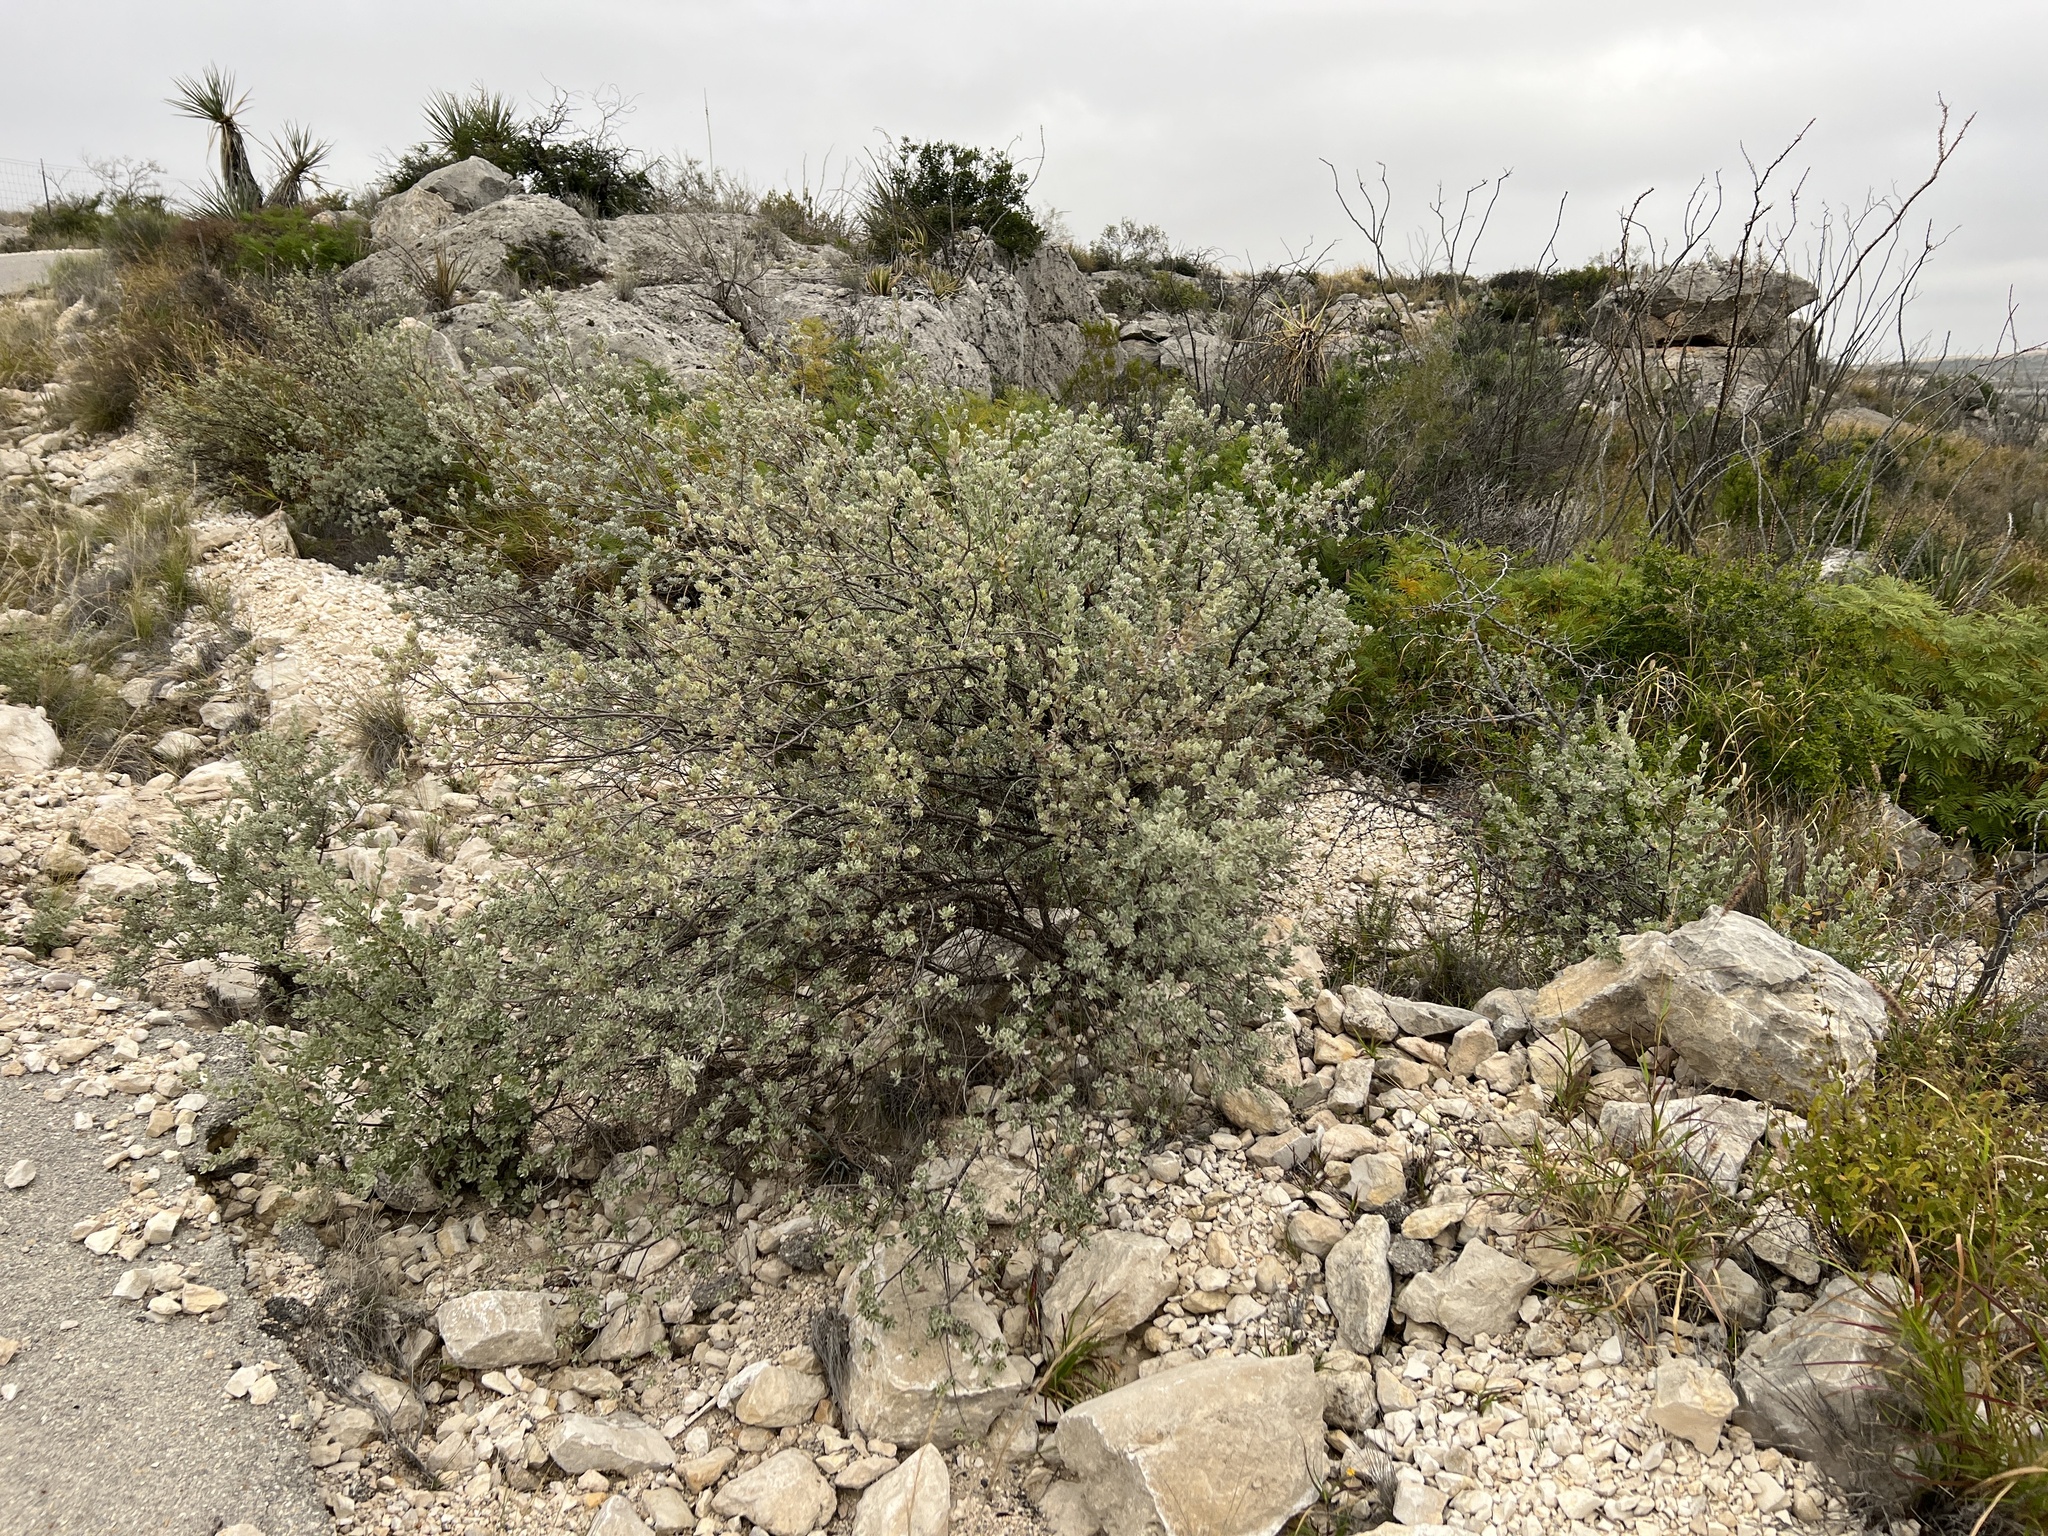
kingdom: Plantae
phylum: Tracheophyta
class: Magnoliopsida
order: Lamiales
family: Scrophulariaceae
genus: Leucophyllum
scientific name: Leucophyllum frutescens
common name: Texas silverleaf
